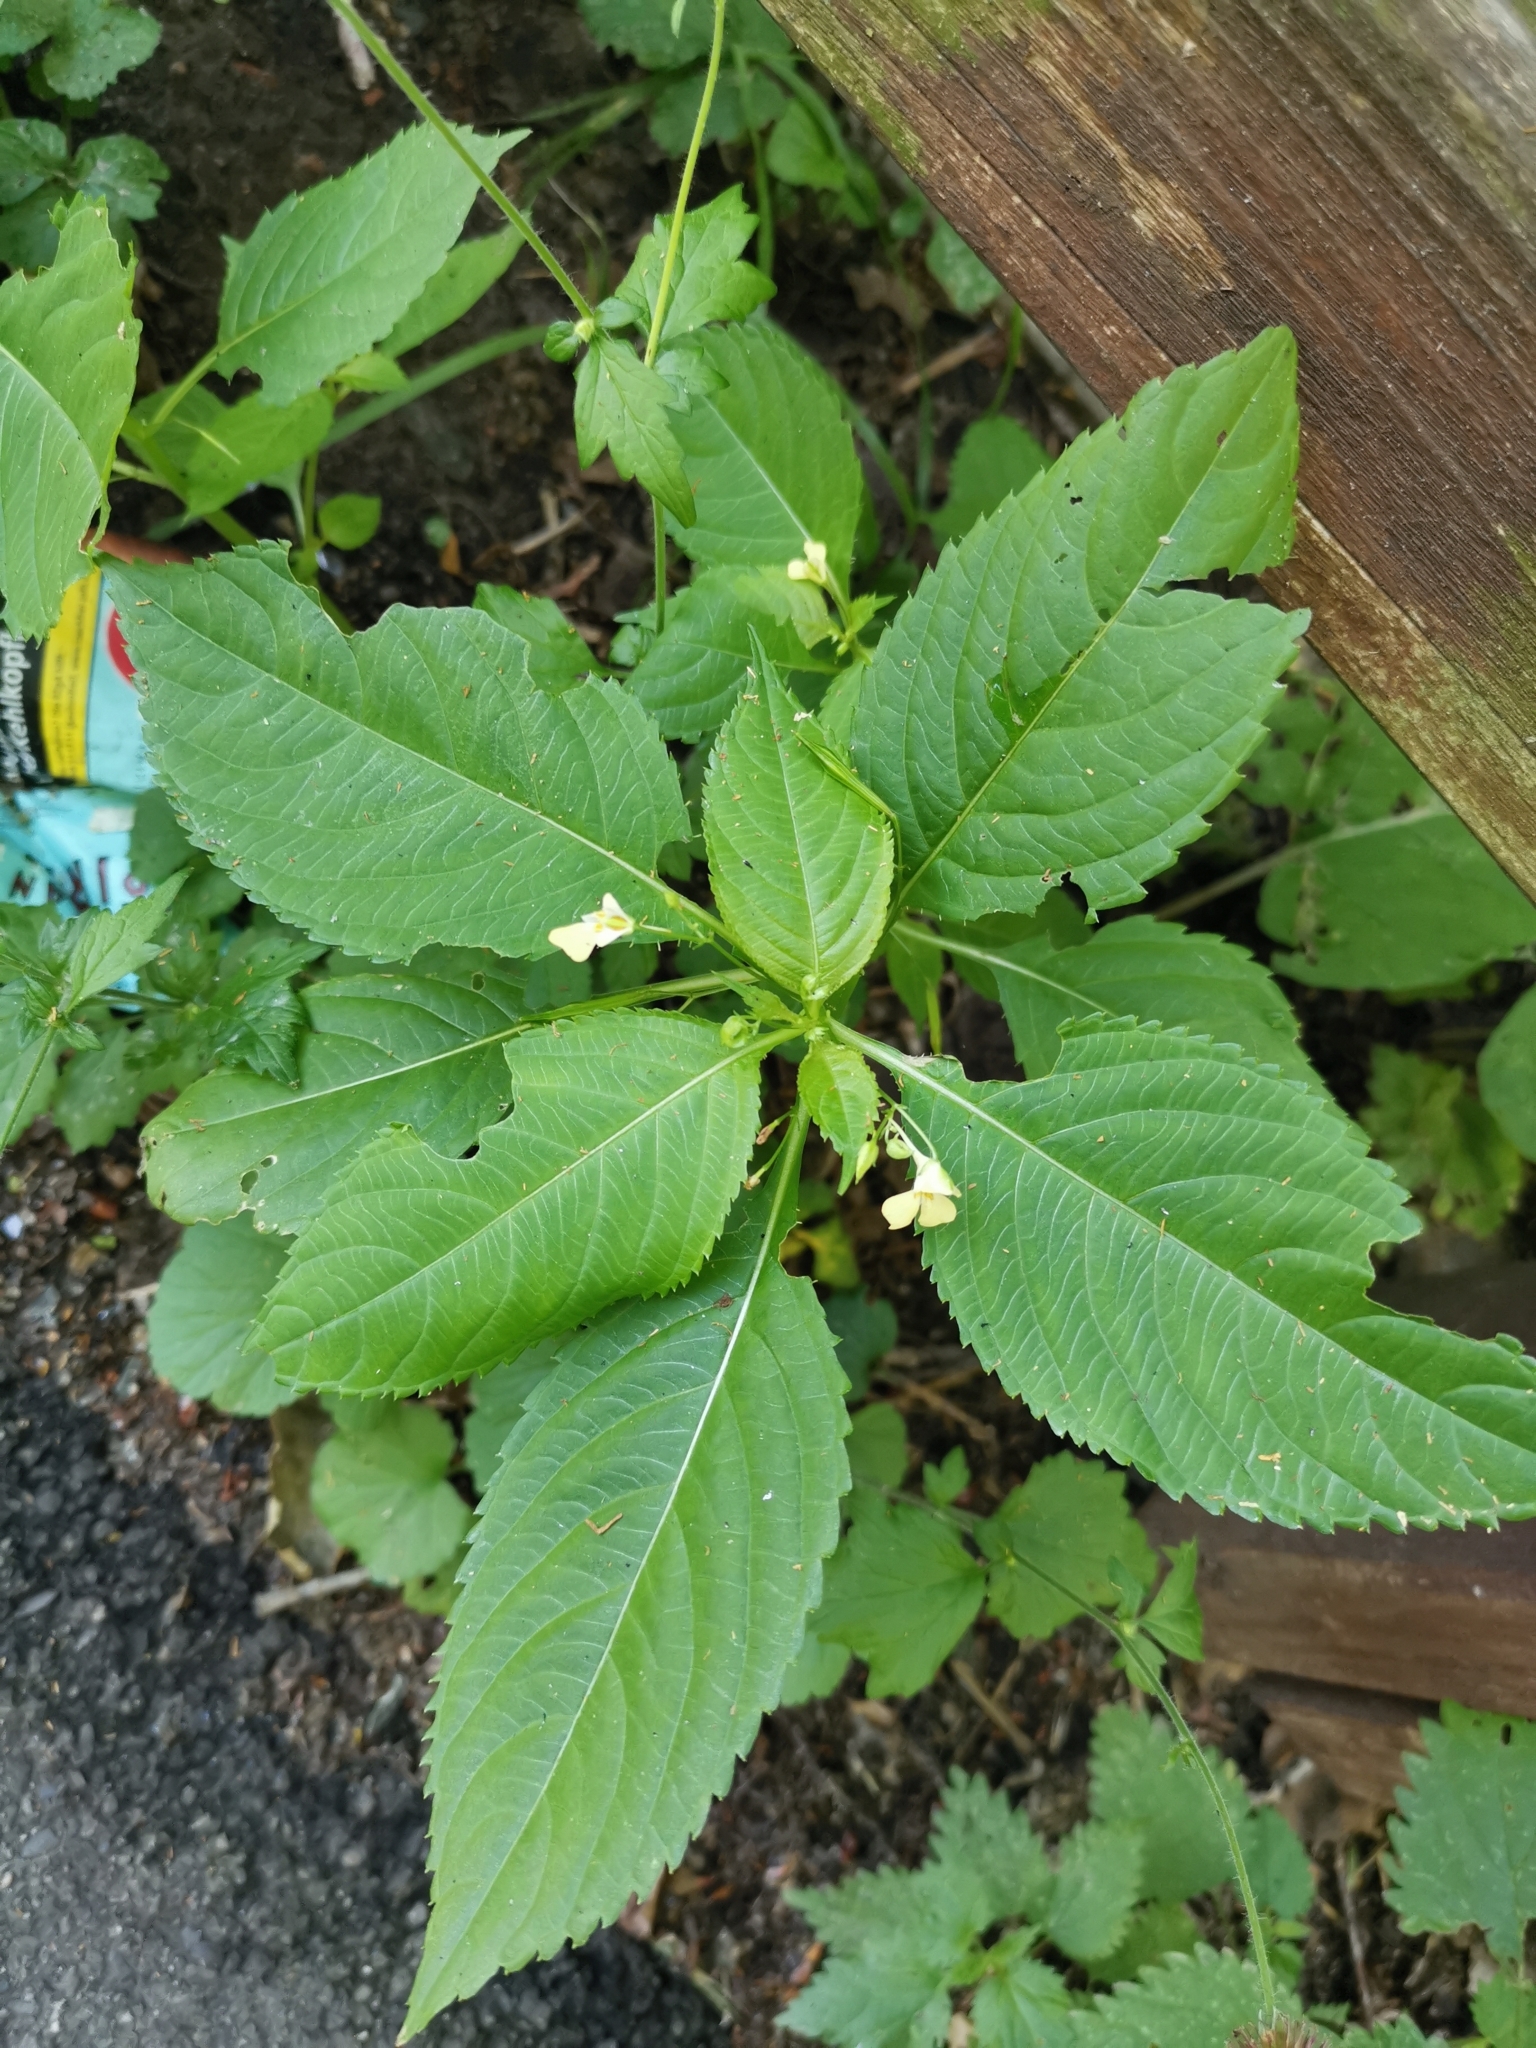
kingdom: Plantae
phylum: Tracheophyta
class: Magnoliopsida
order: Ericales
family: Balsaminaceae
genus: Impatiens
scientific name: Impatiens parviflora
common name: Small balsam
